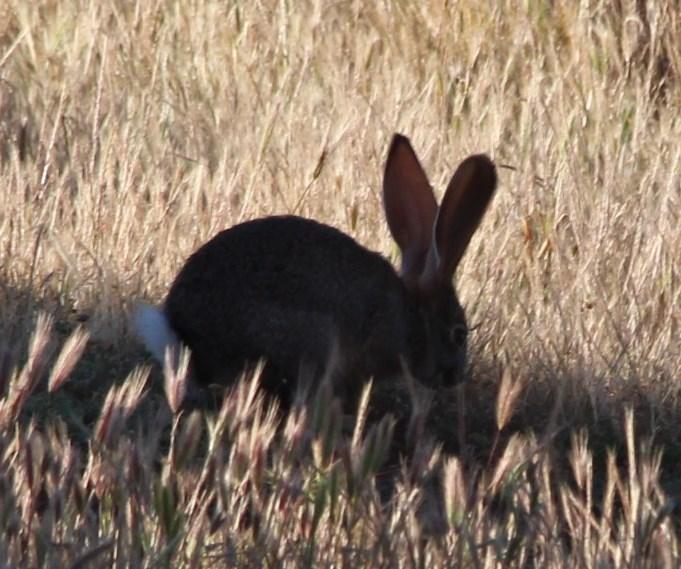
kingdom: Animalia
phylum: Chordata
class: Mammalia
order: Lagomorpha
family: Leporidae
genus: Lepus
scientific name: Lepus saxatilis
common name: Scrub hare
